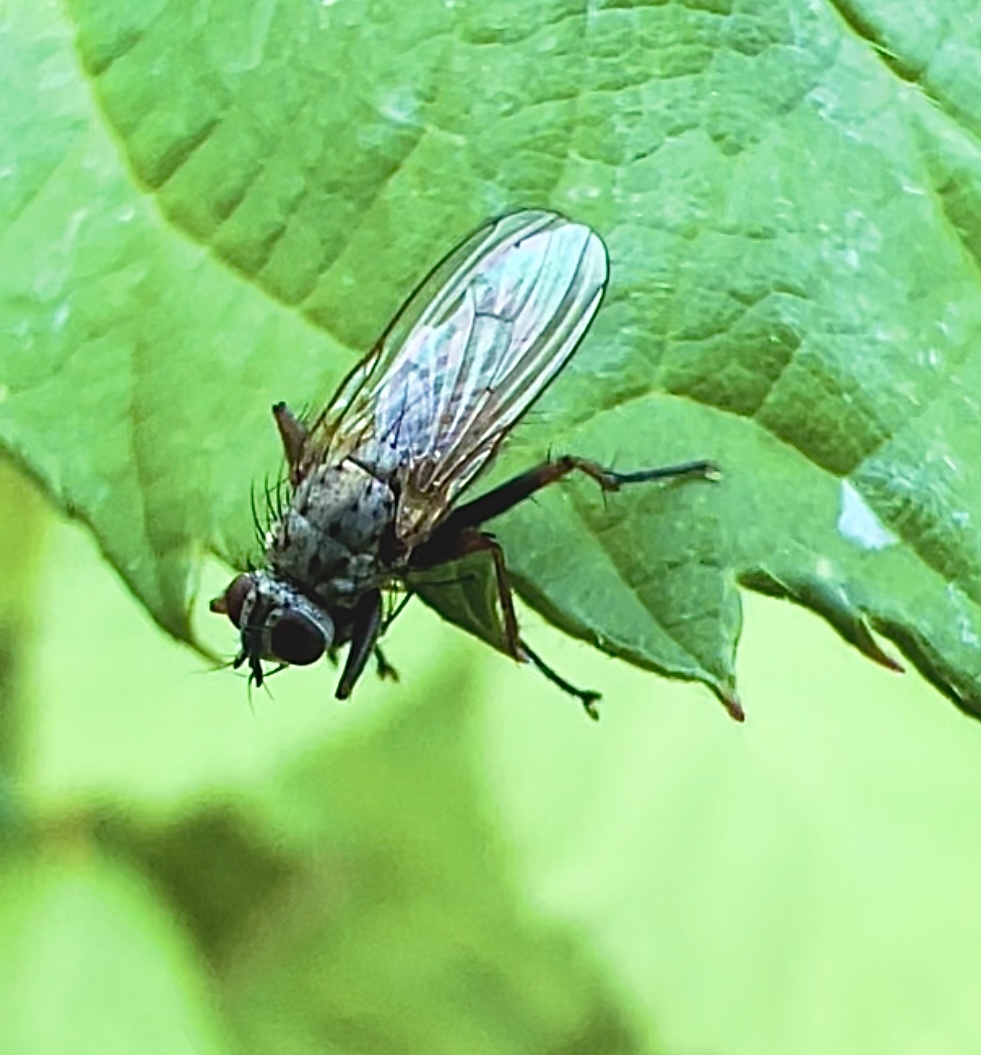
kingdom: Animalia
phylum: Arthropoda
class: Insecta
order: Diptera
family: Muscidae
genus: Coenosia
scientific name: Coenosia tigrina
